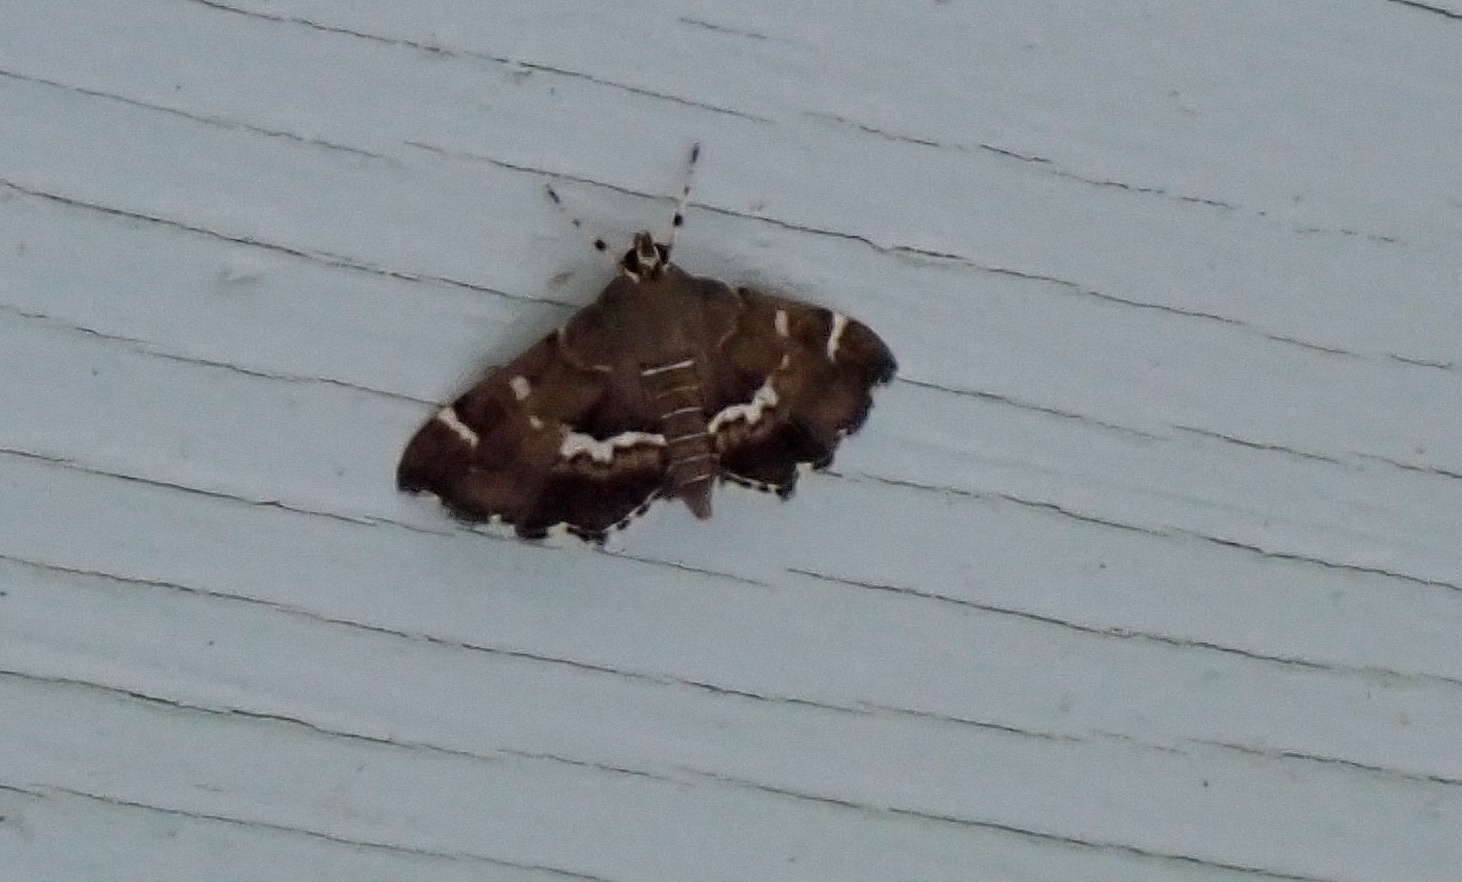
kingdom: Animalia
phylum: Arthropoda
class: Insecta
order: Lepidoptera
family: Crambidae
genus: Hymenia
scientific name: Hymenia perspectalis
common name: Spotted beet webworm
